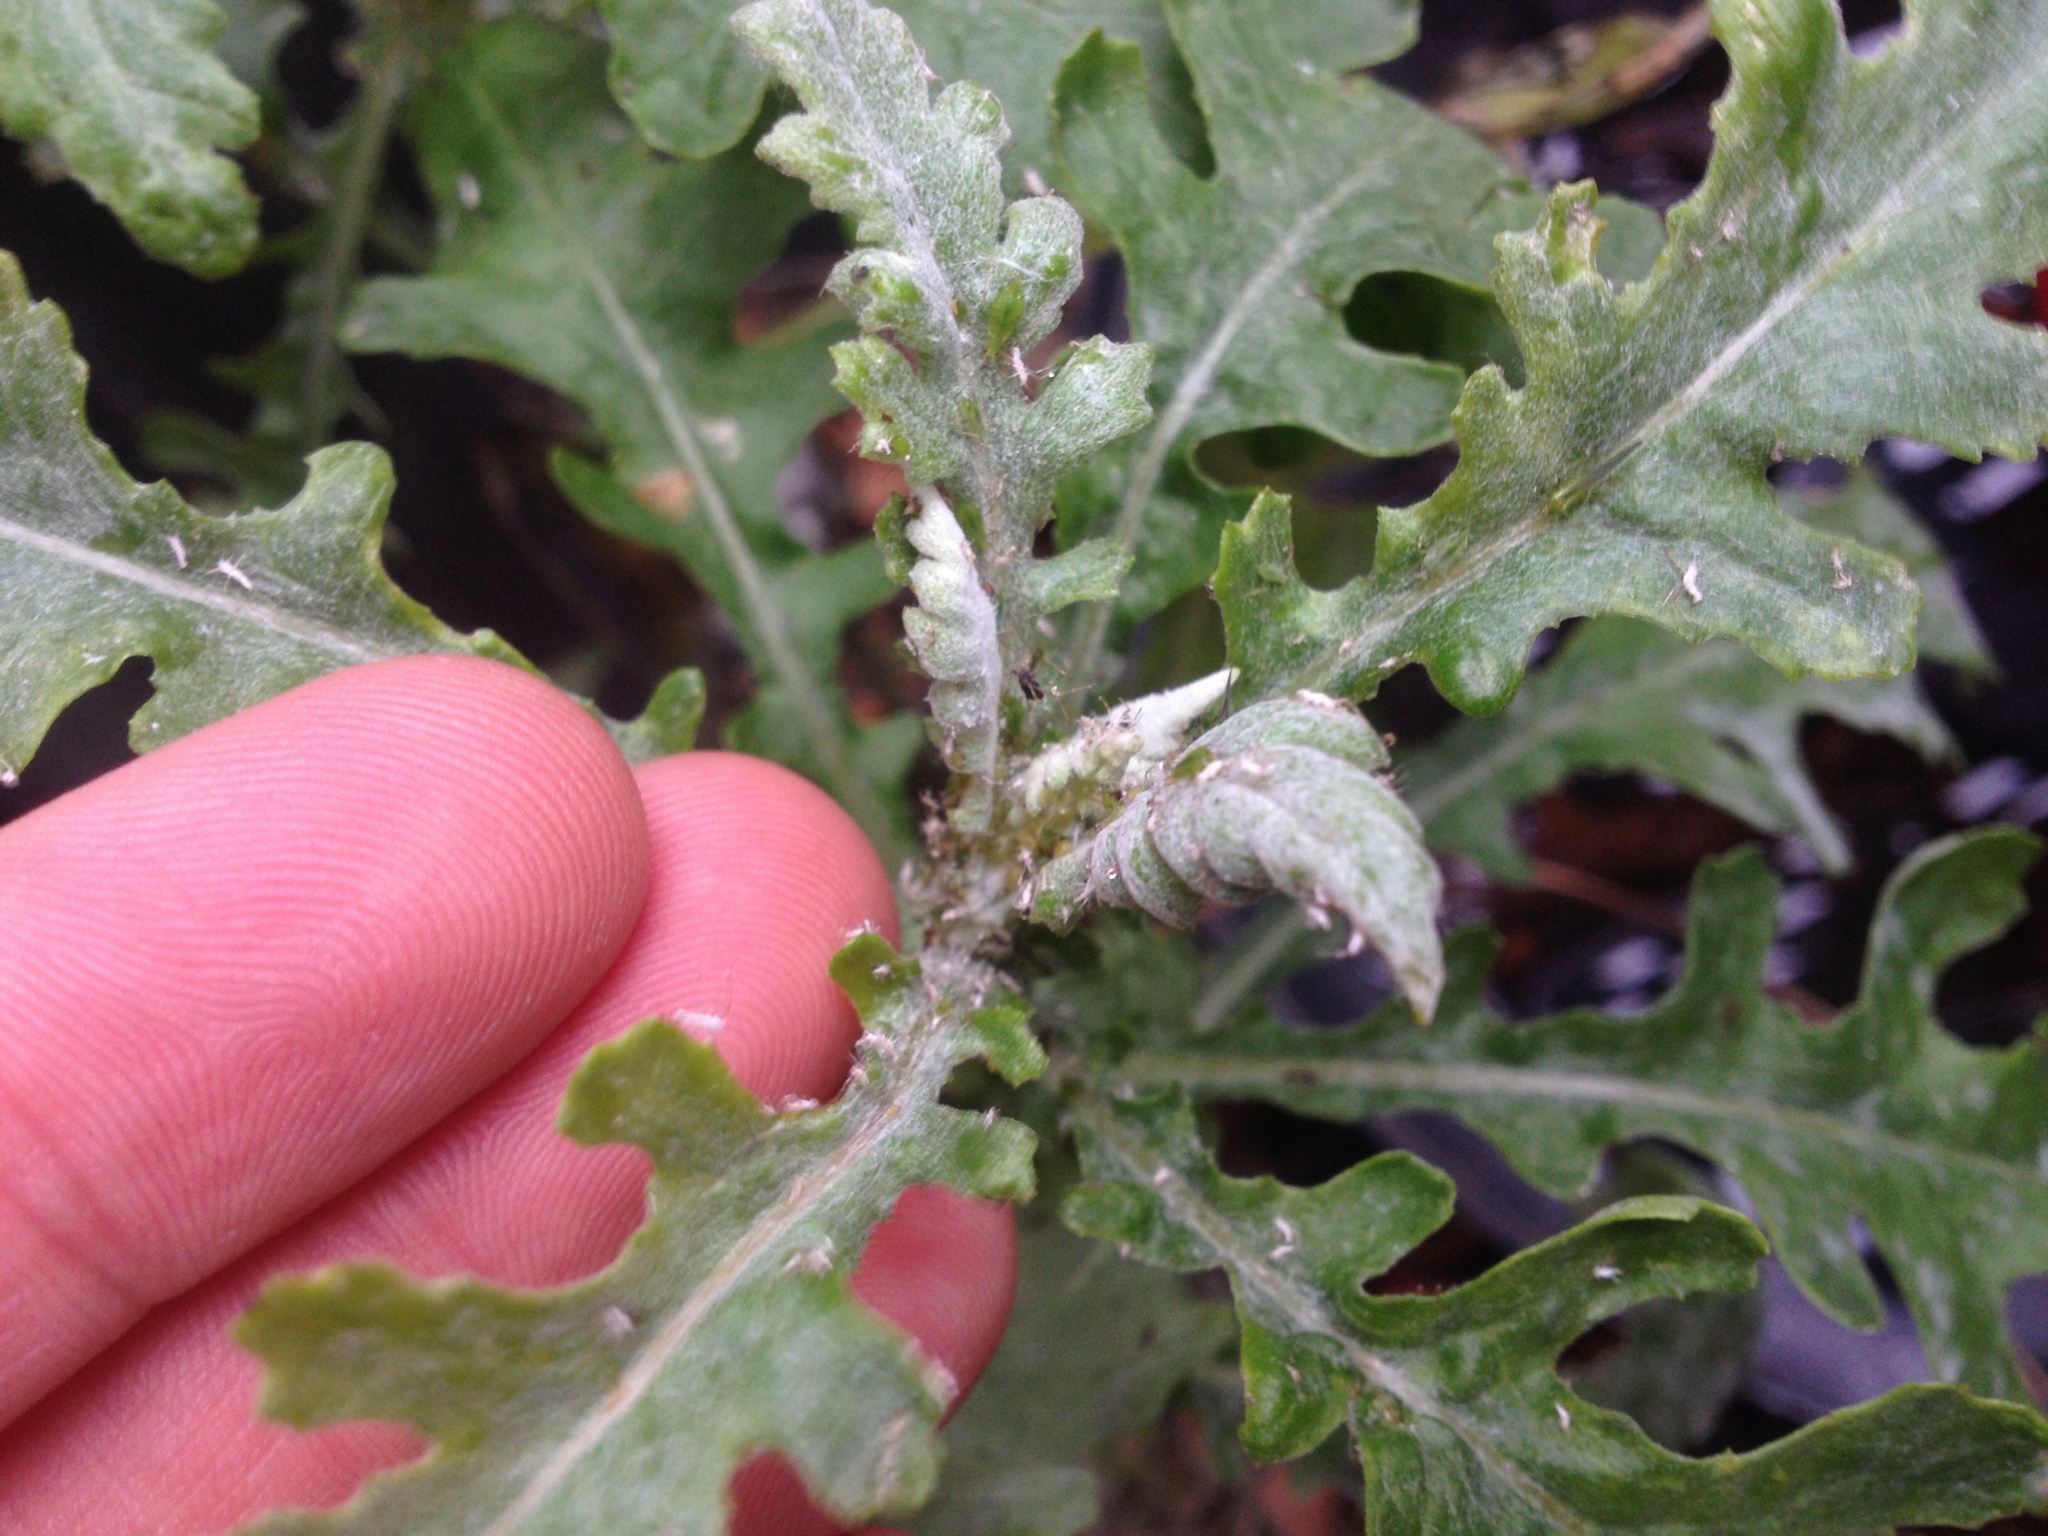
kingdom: Plantae
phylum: Tracheophyta
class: Magnoliopsida
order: Asterales
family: Asteraceae
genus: Senecio
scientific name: Senecio glomeratus
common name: Cutleaf burnweed
